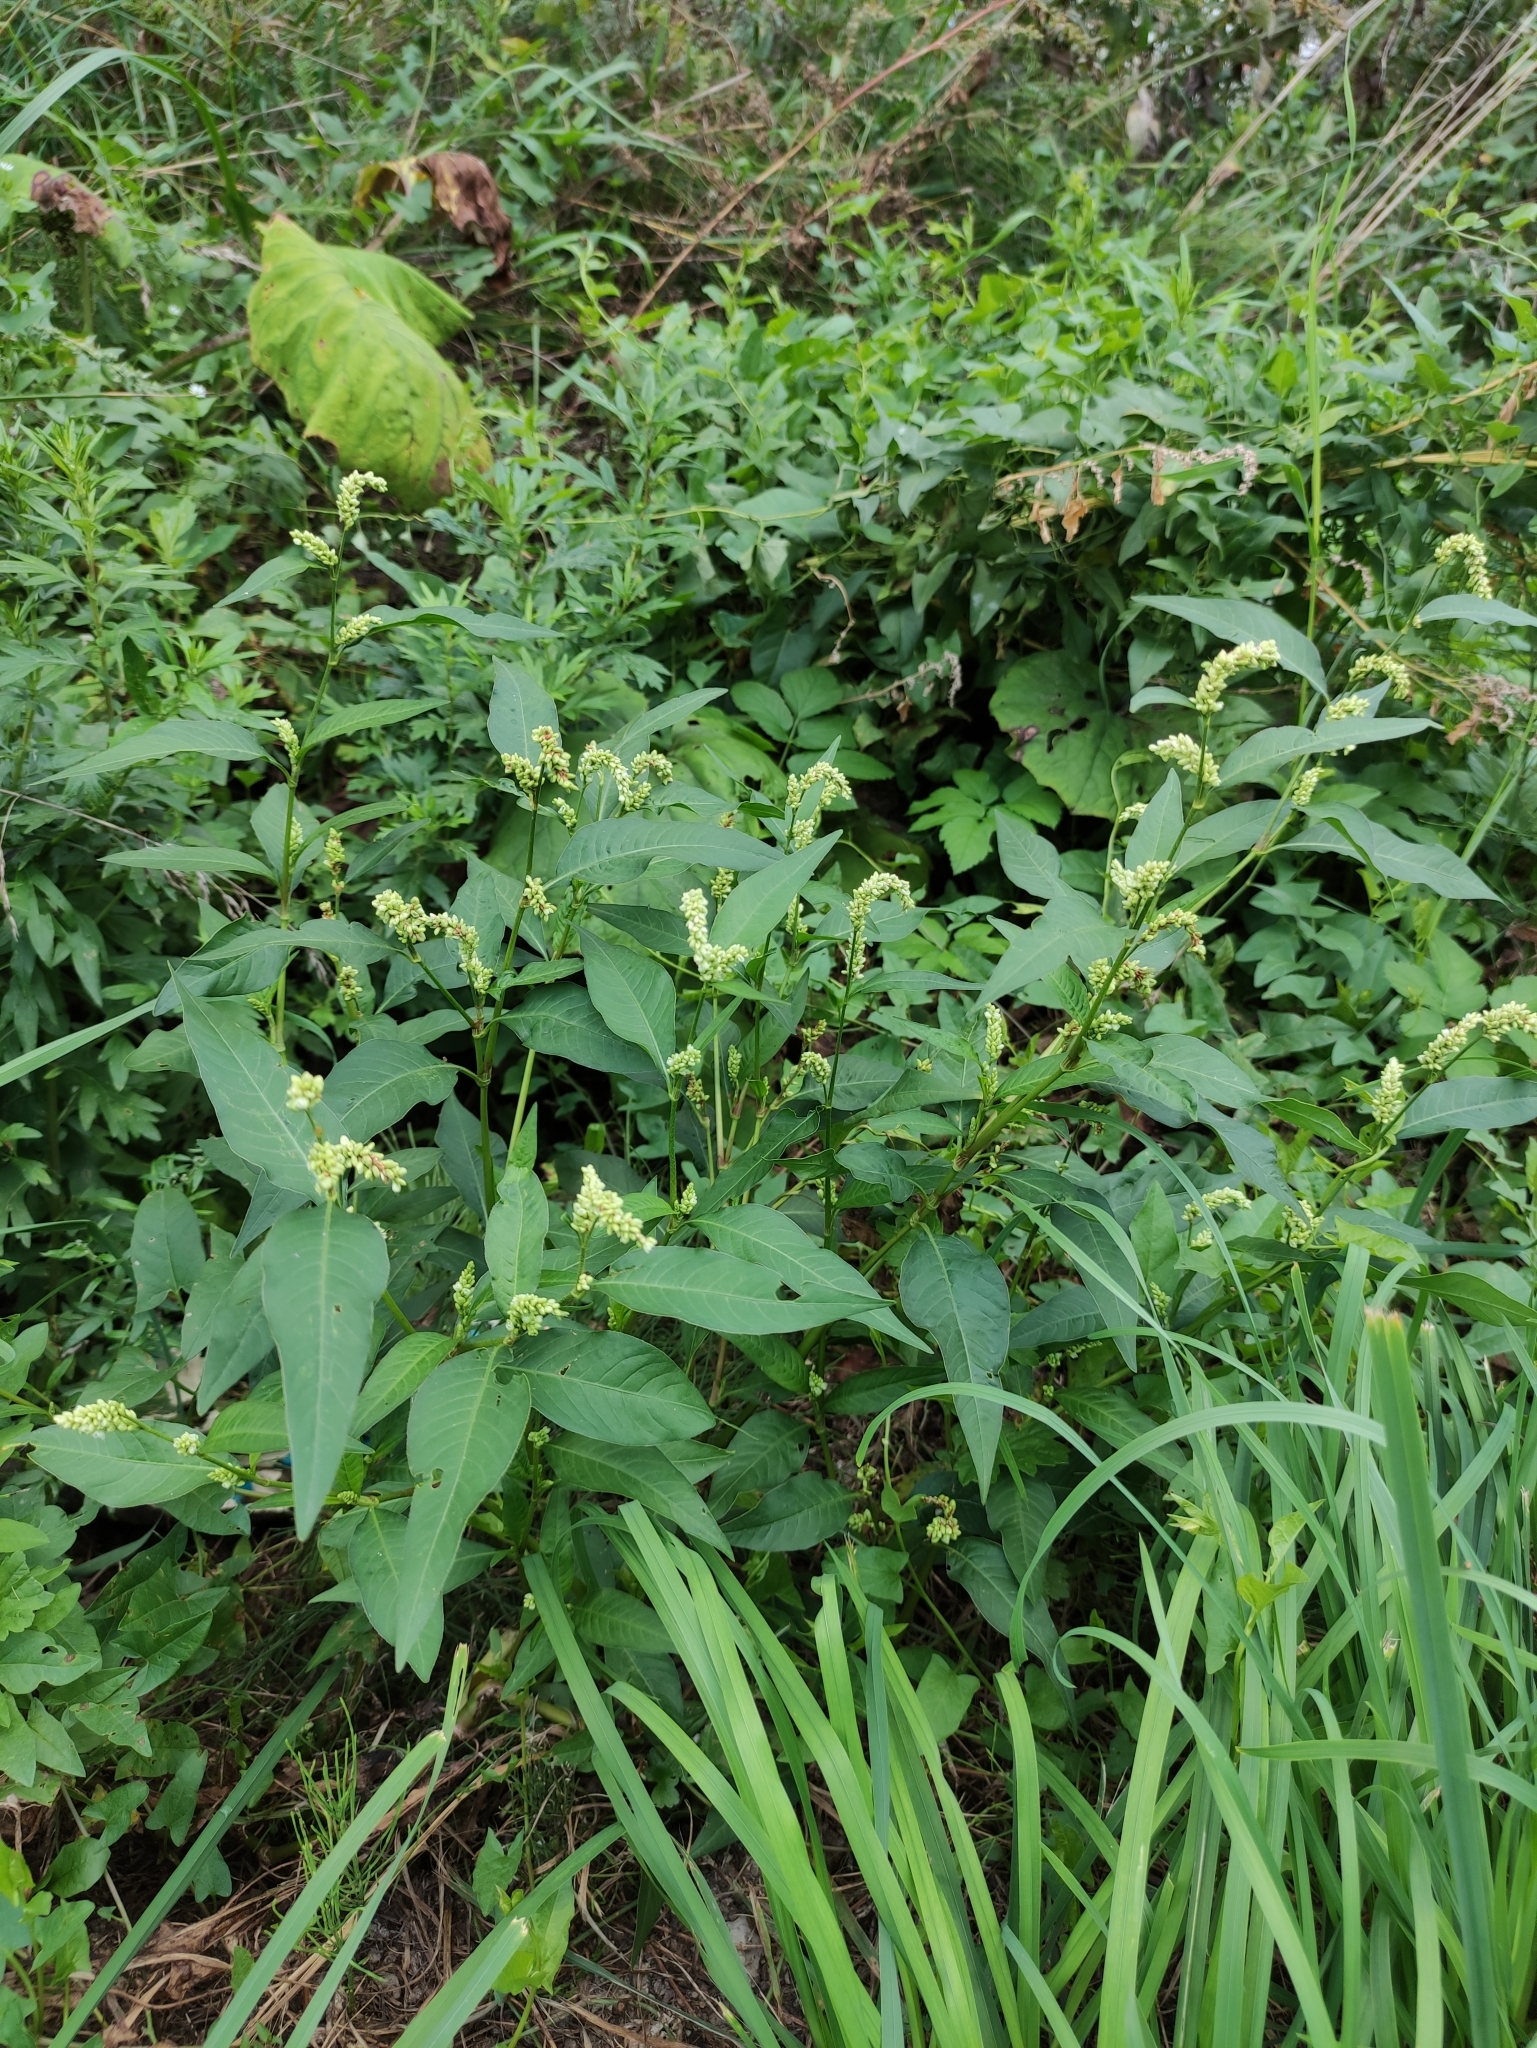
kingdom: Plantae
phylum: Tracheophyta
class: Magnoliopsida
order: Caryophyllales
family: Polygonaceae
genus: Persicaria
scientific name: Persicaria lapathifolia
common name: Curlytop knotweed
